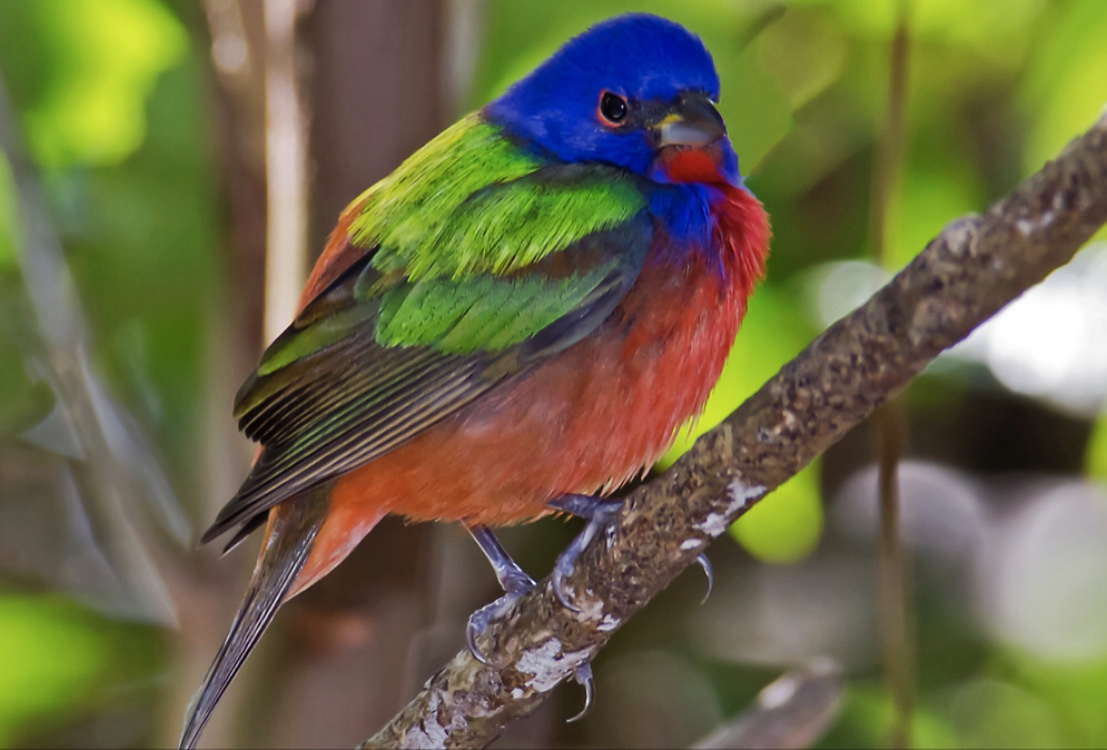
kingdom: Animalia
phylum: Chordata
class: Aves
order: Passeriformes
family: Cardinalidae
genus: Passerina
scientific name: Passerina ciris
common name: Painted bunting
